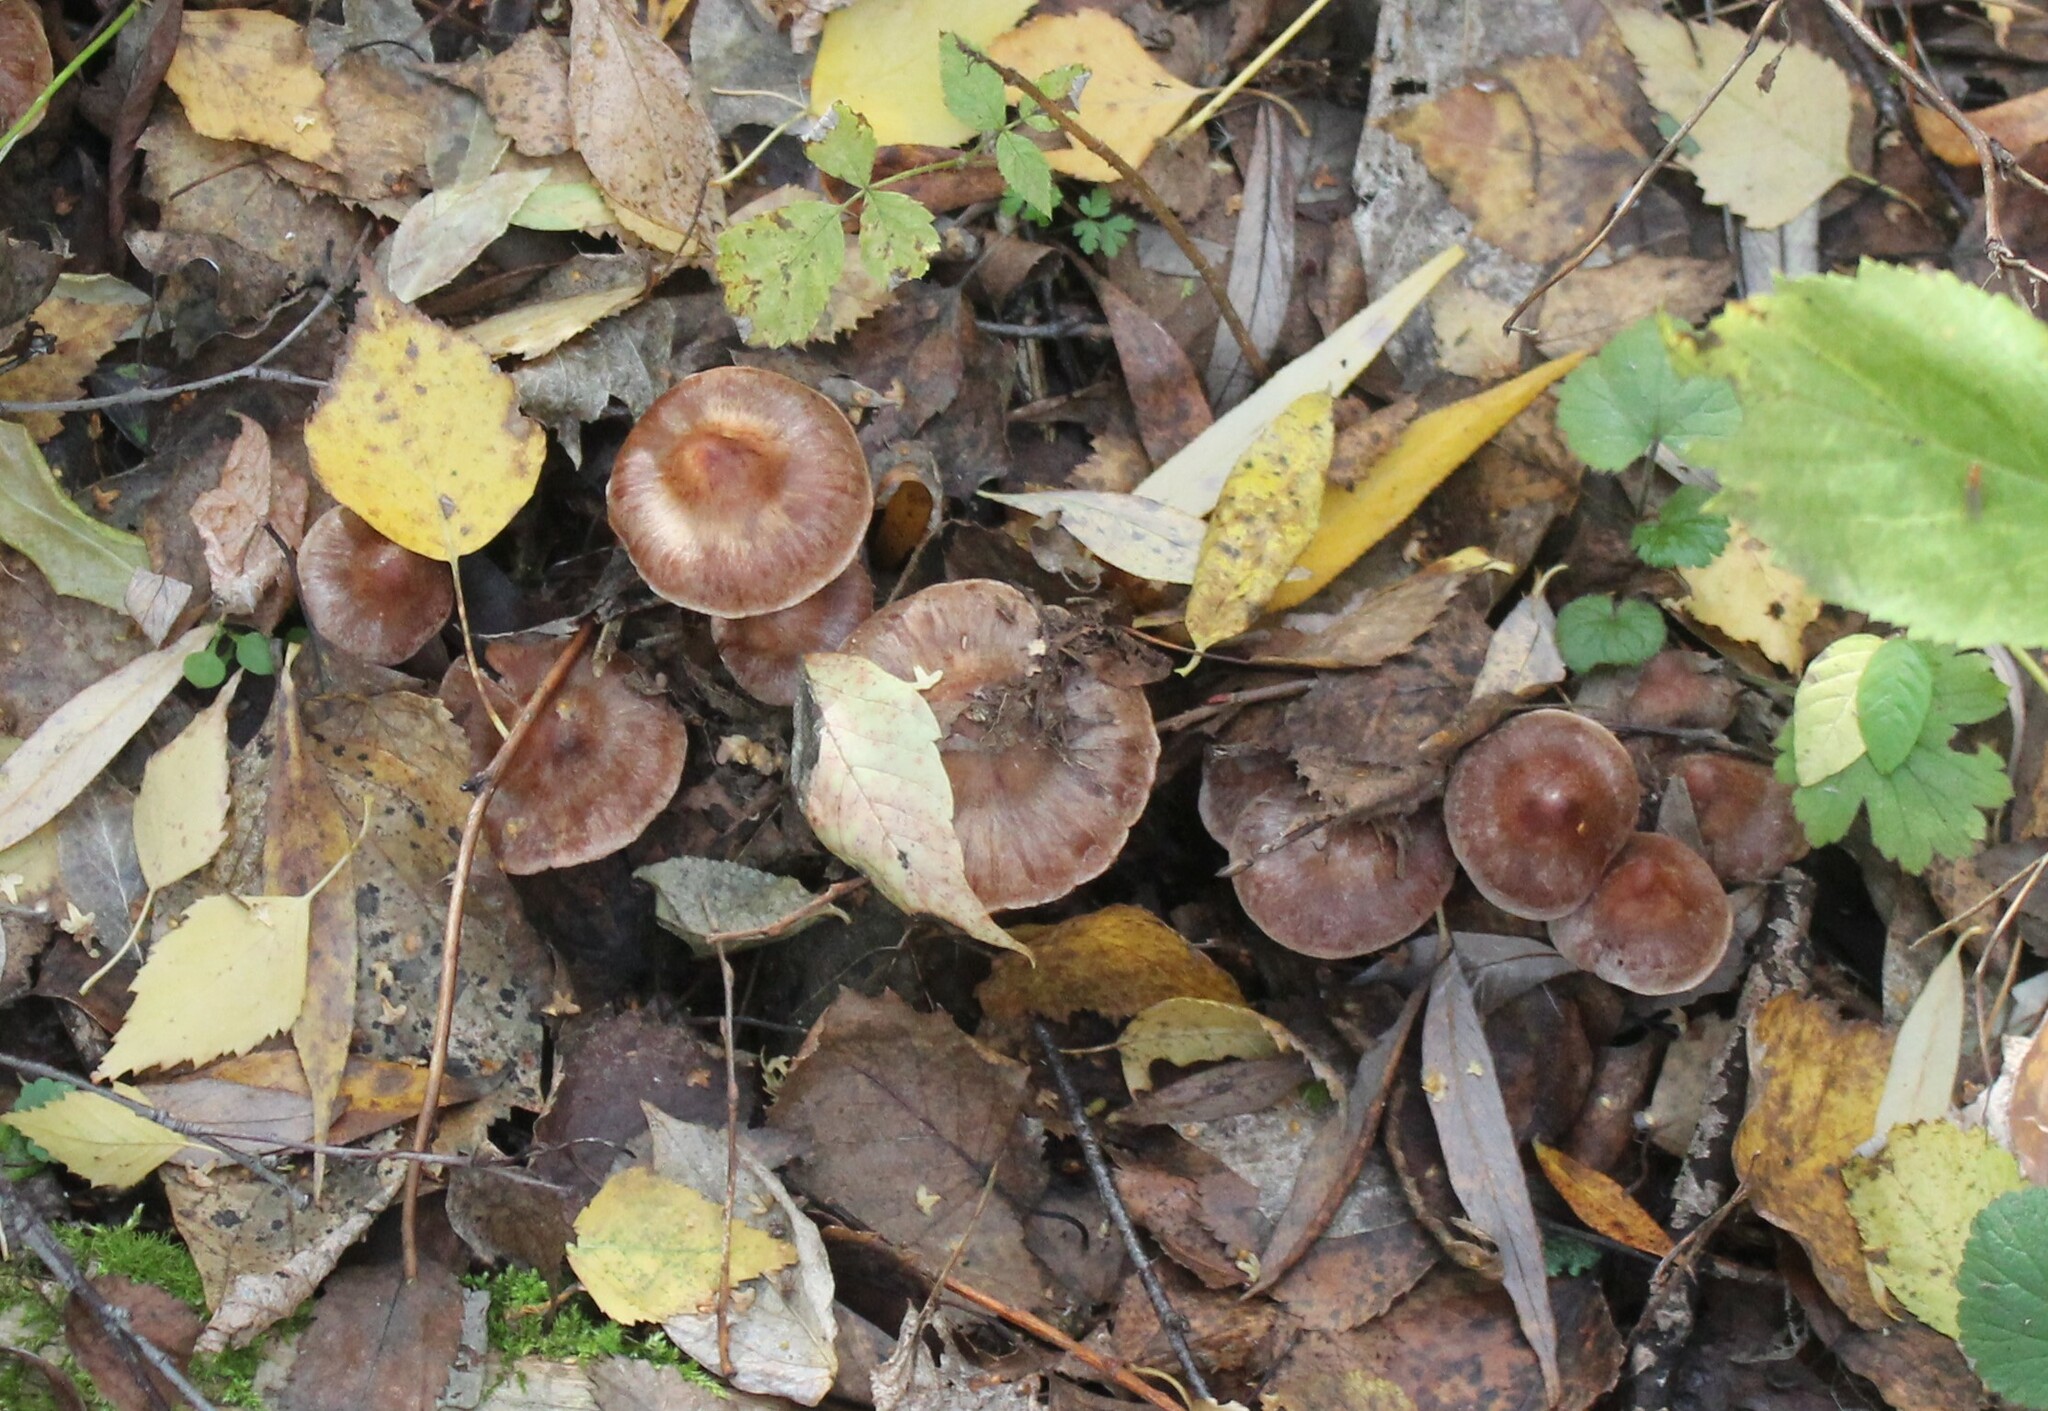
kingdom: Fungi
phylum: Basidiomycota
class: Agaricomycetes
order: Agaricales
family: Cortinariaceae
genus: Cortinarius
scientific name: Cortinarius lucorum
